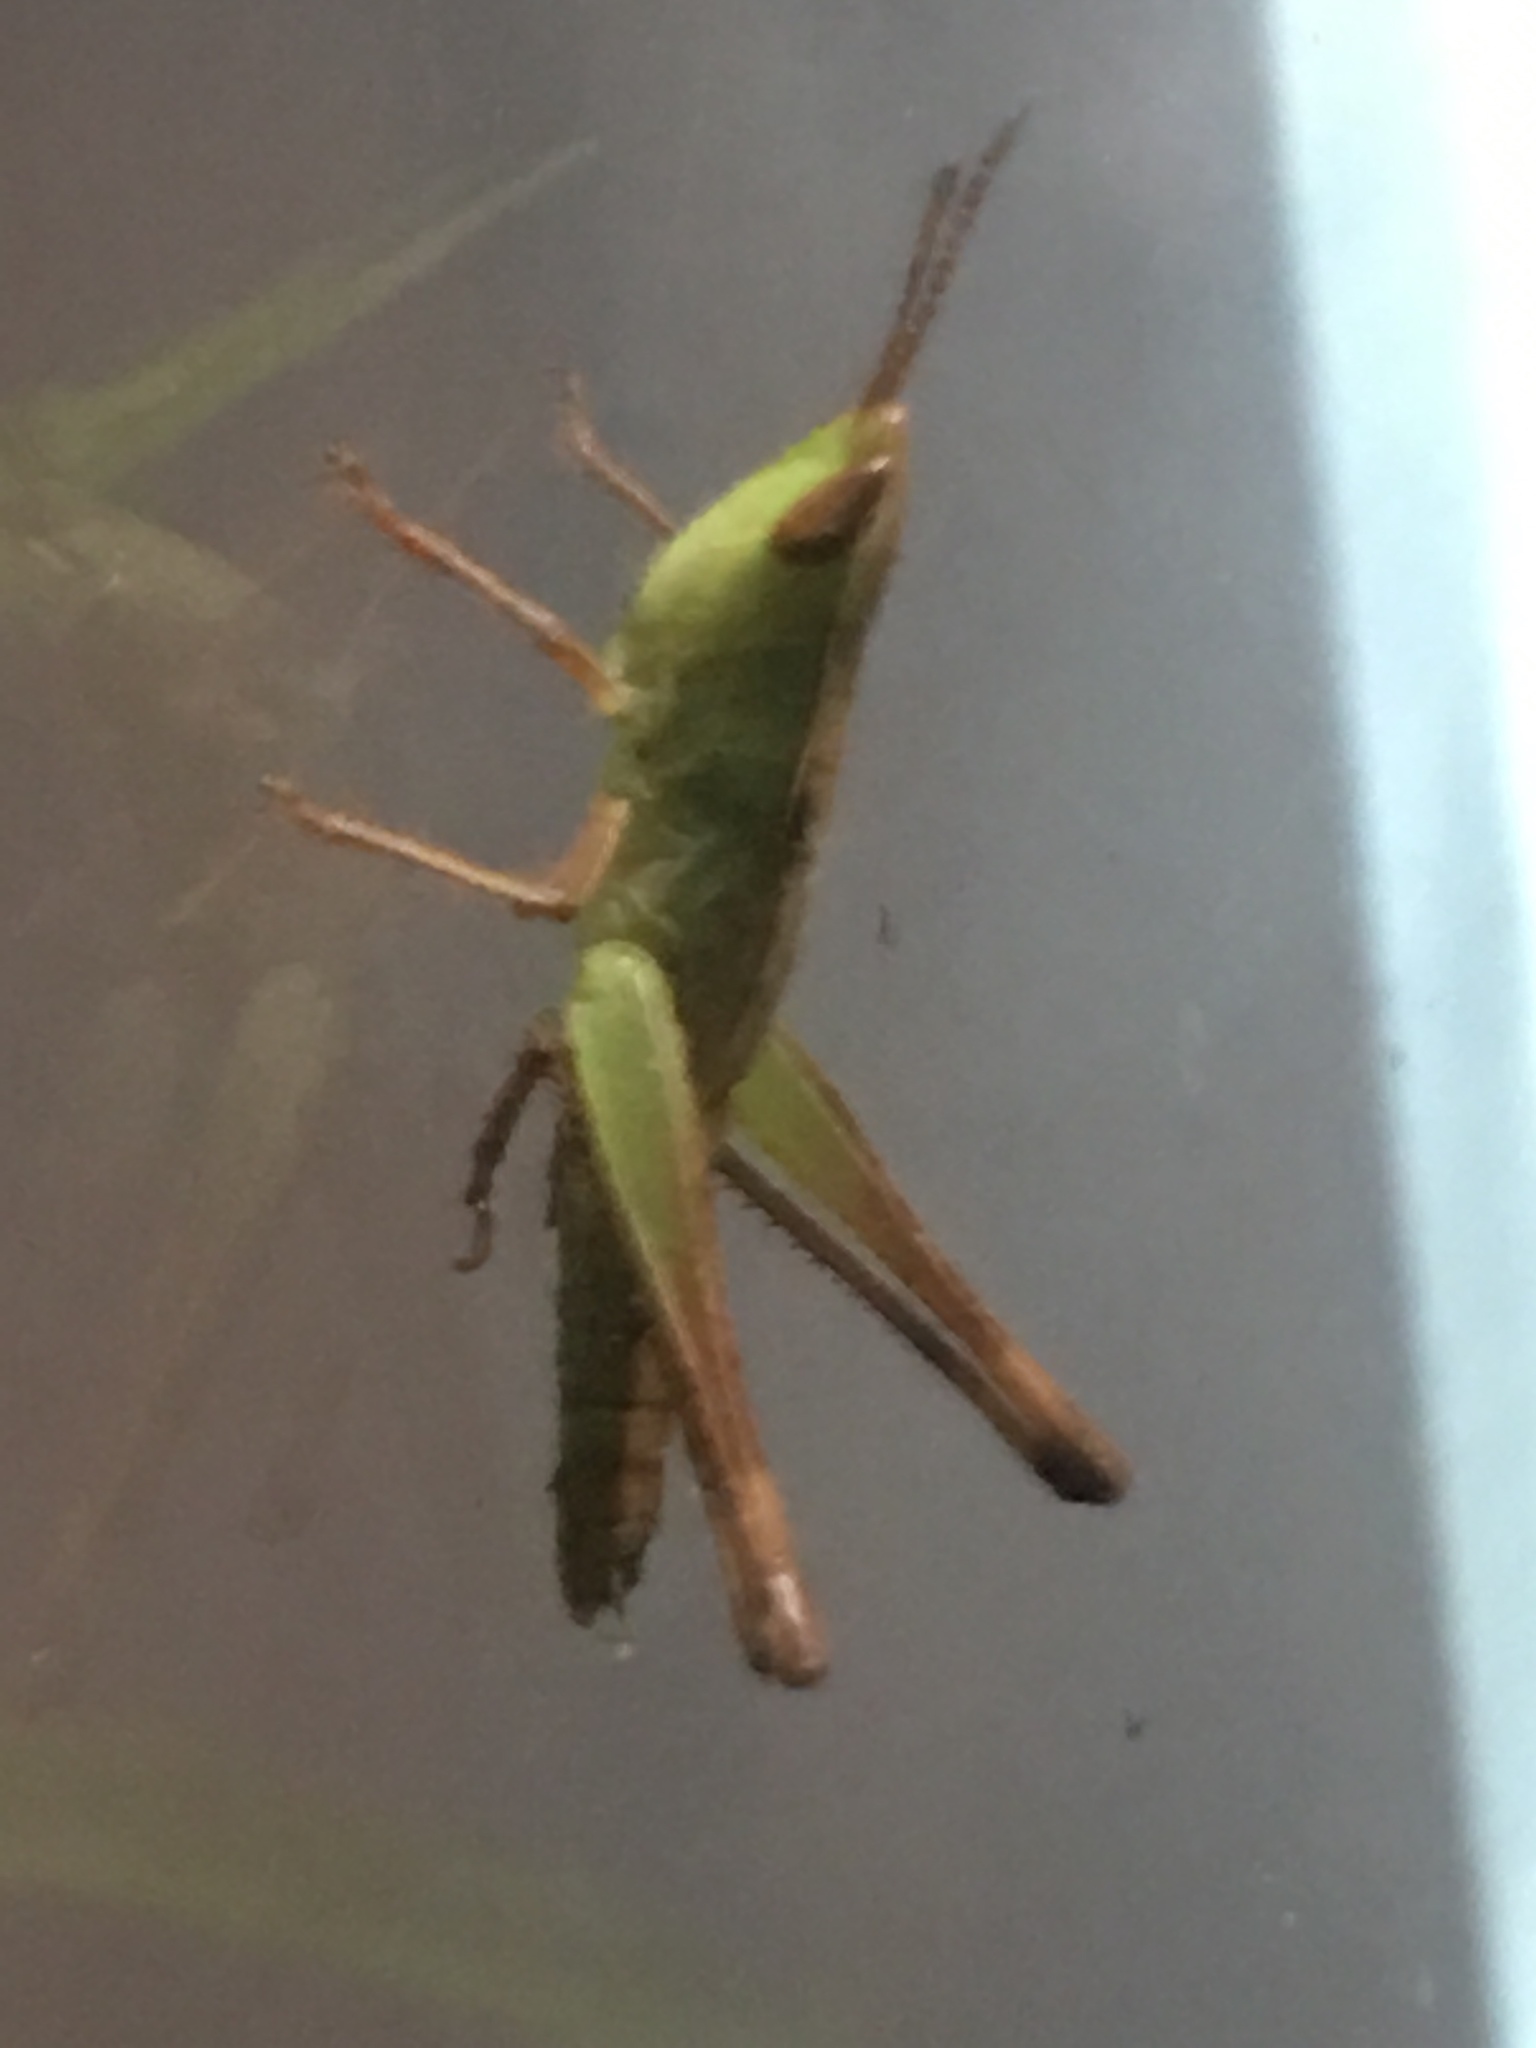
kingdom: Animalia
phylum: Arthropoda
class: Insecta
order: Orthoptera
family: Acrididae
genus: Syrbula
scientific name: Syrbula admirabilis
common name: Handsome grasshopper
